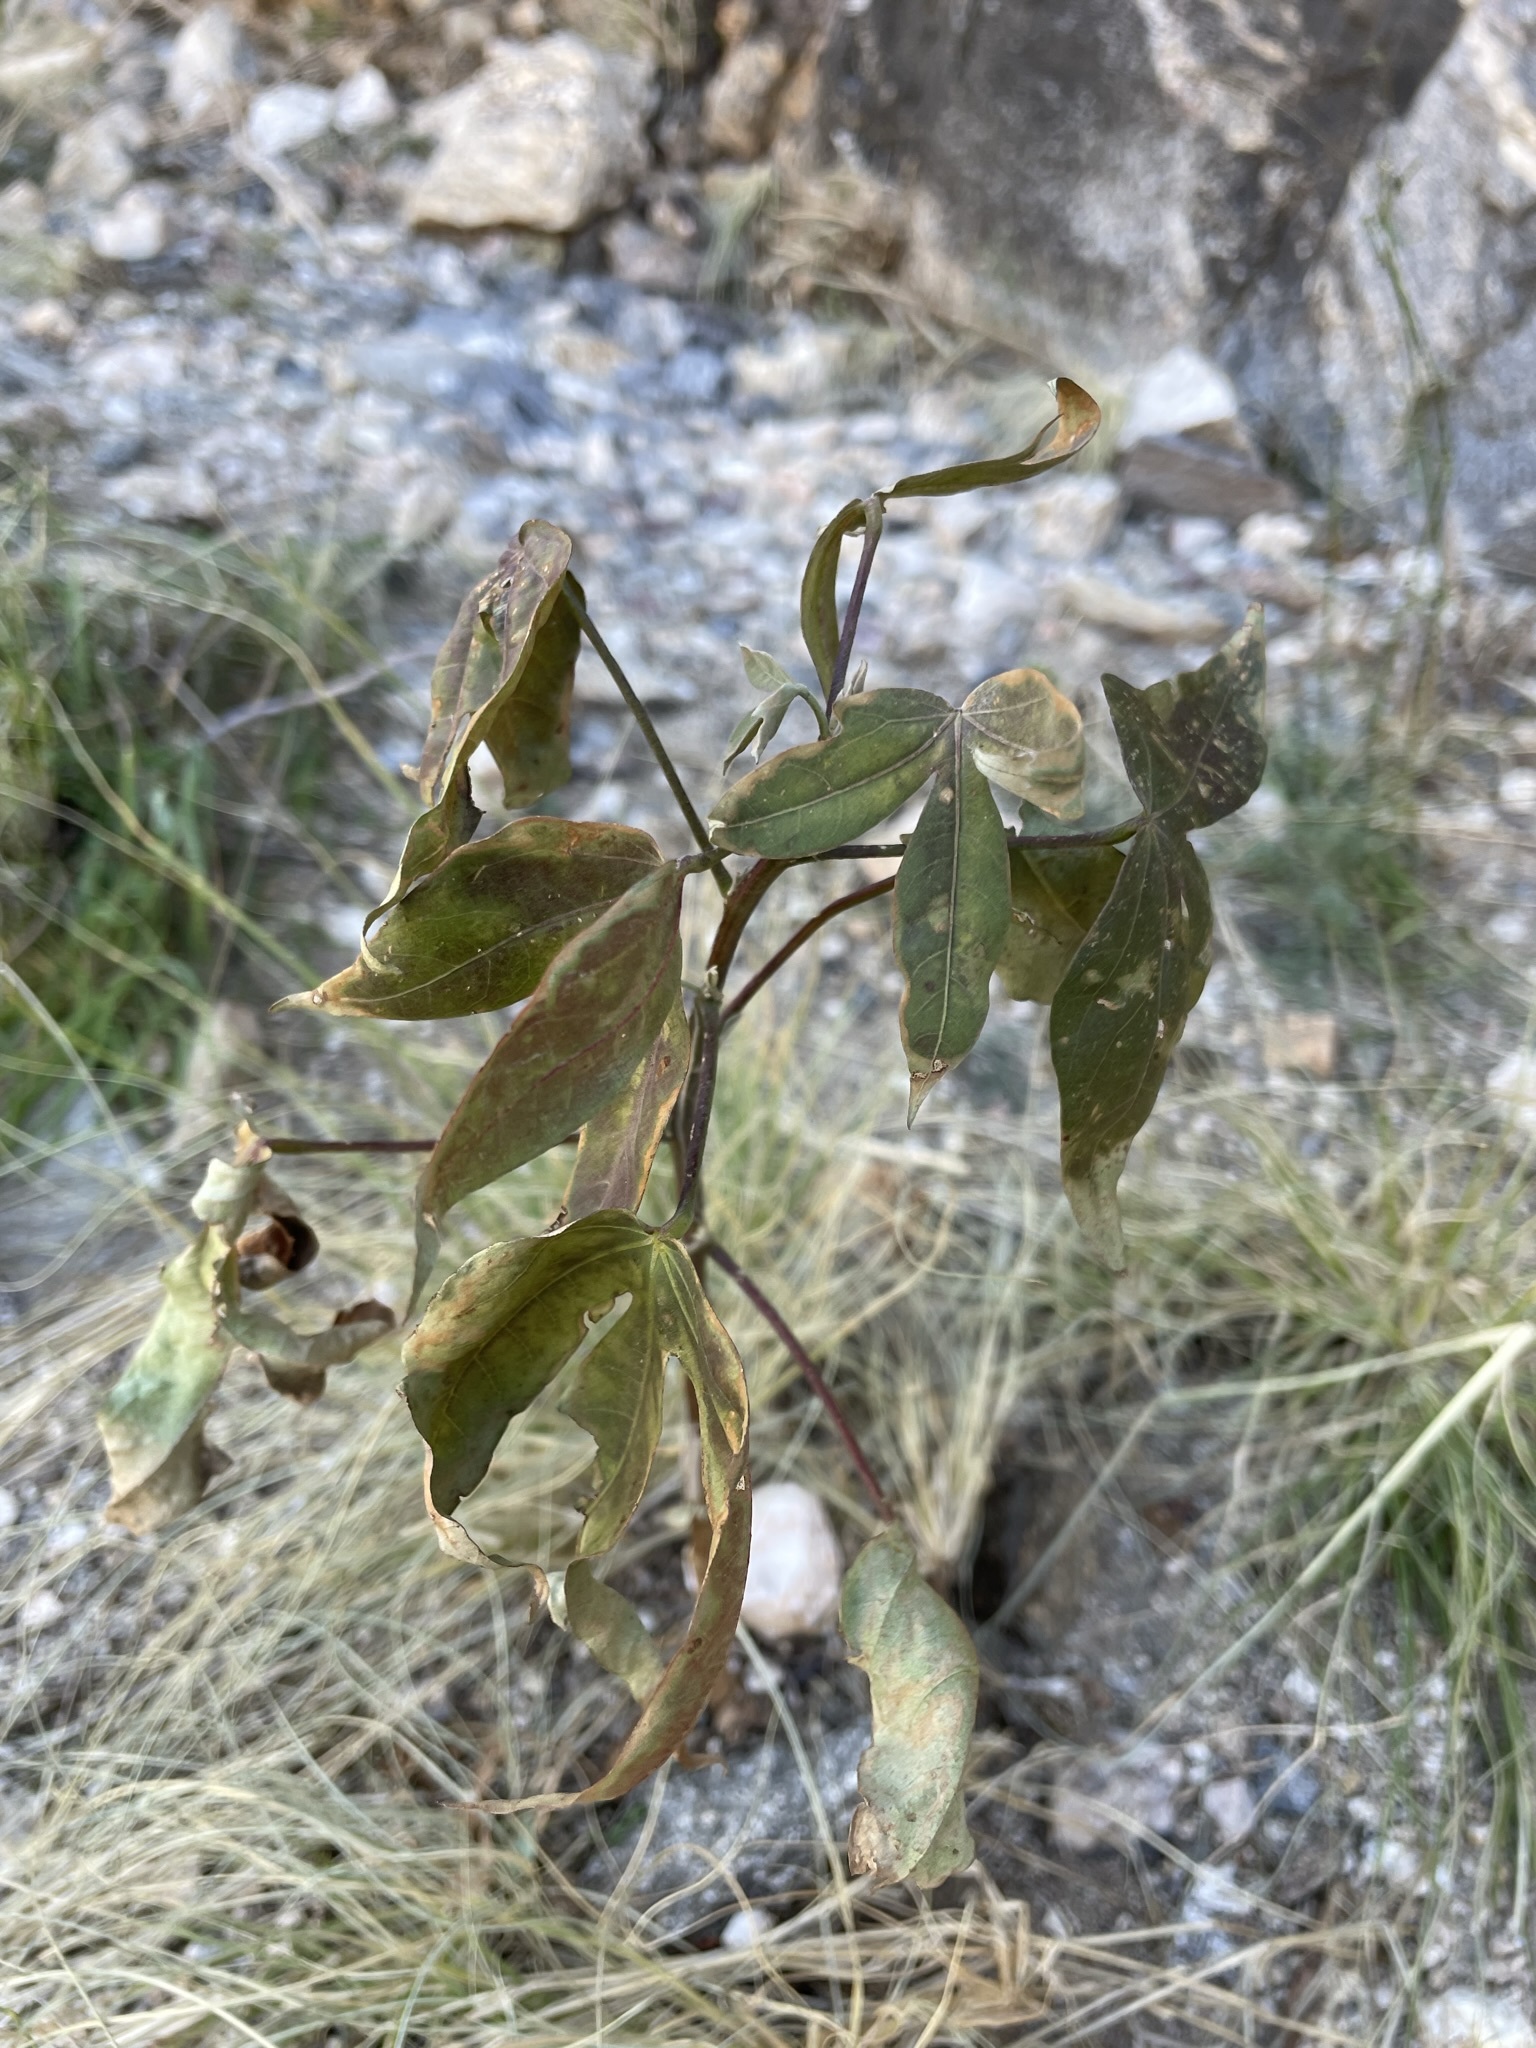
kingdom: Plantae
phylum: Tracheophyta
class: Magnoliopsida
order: Malvales
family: Malvaceae
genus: Gossypium
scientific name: Gossypium thurberi
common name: Desert cotton
